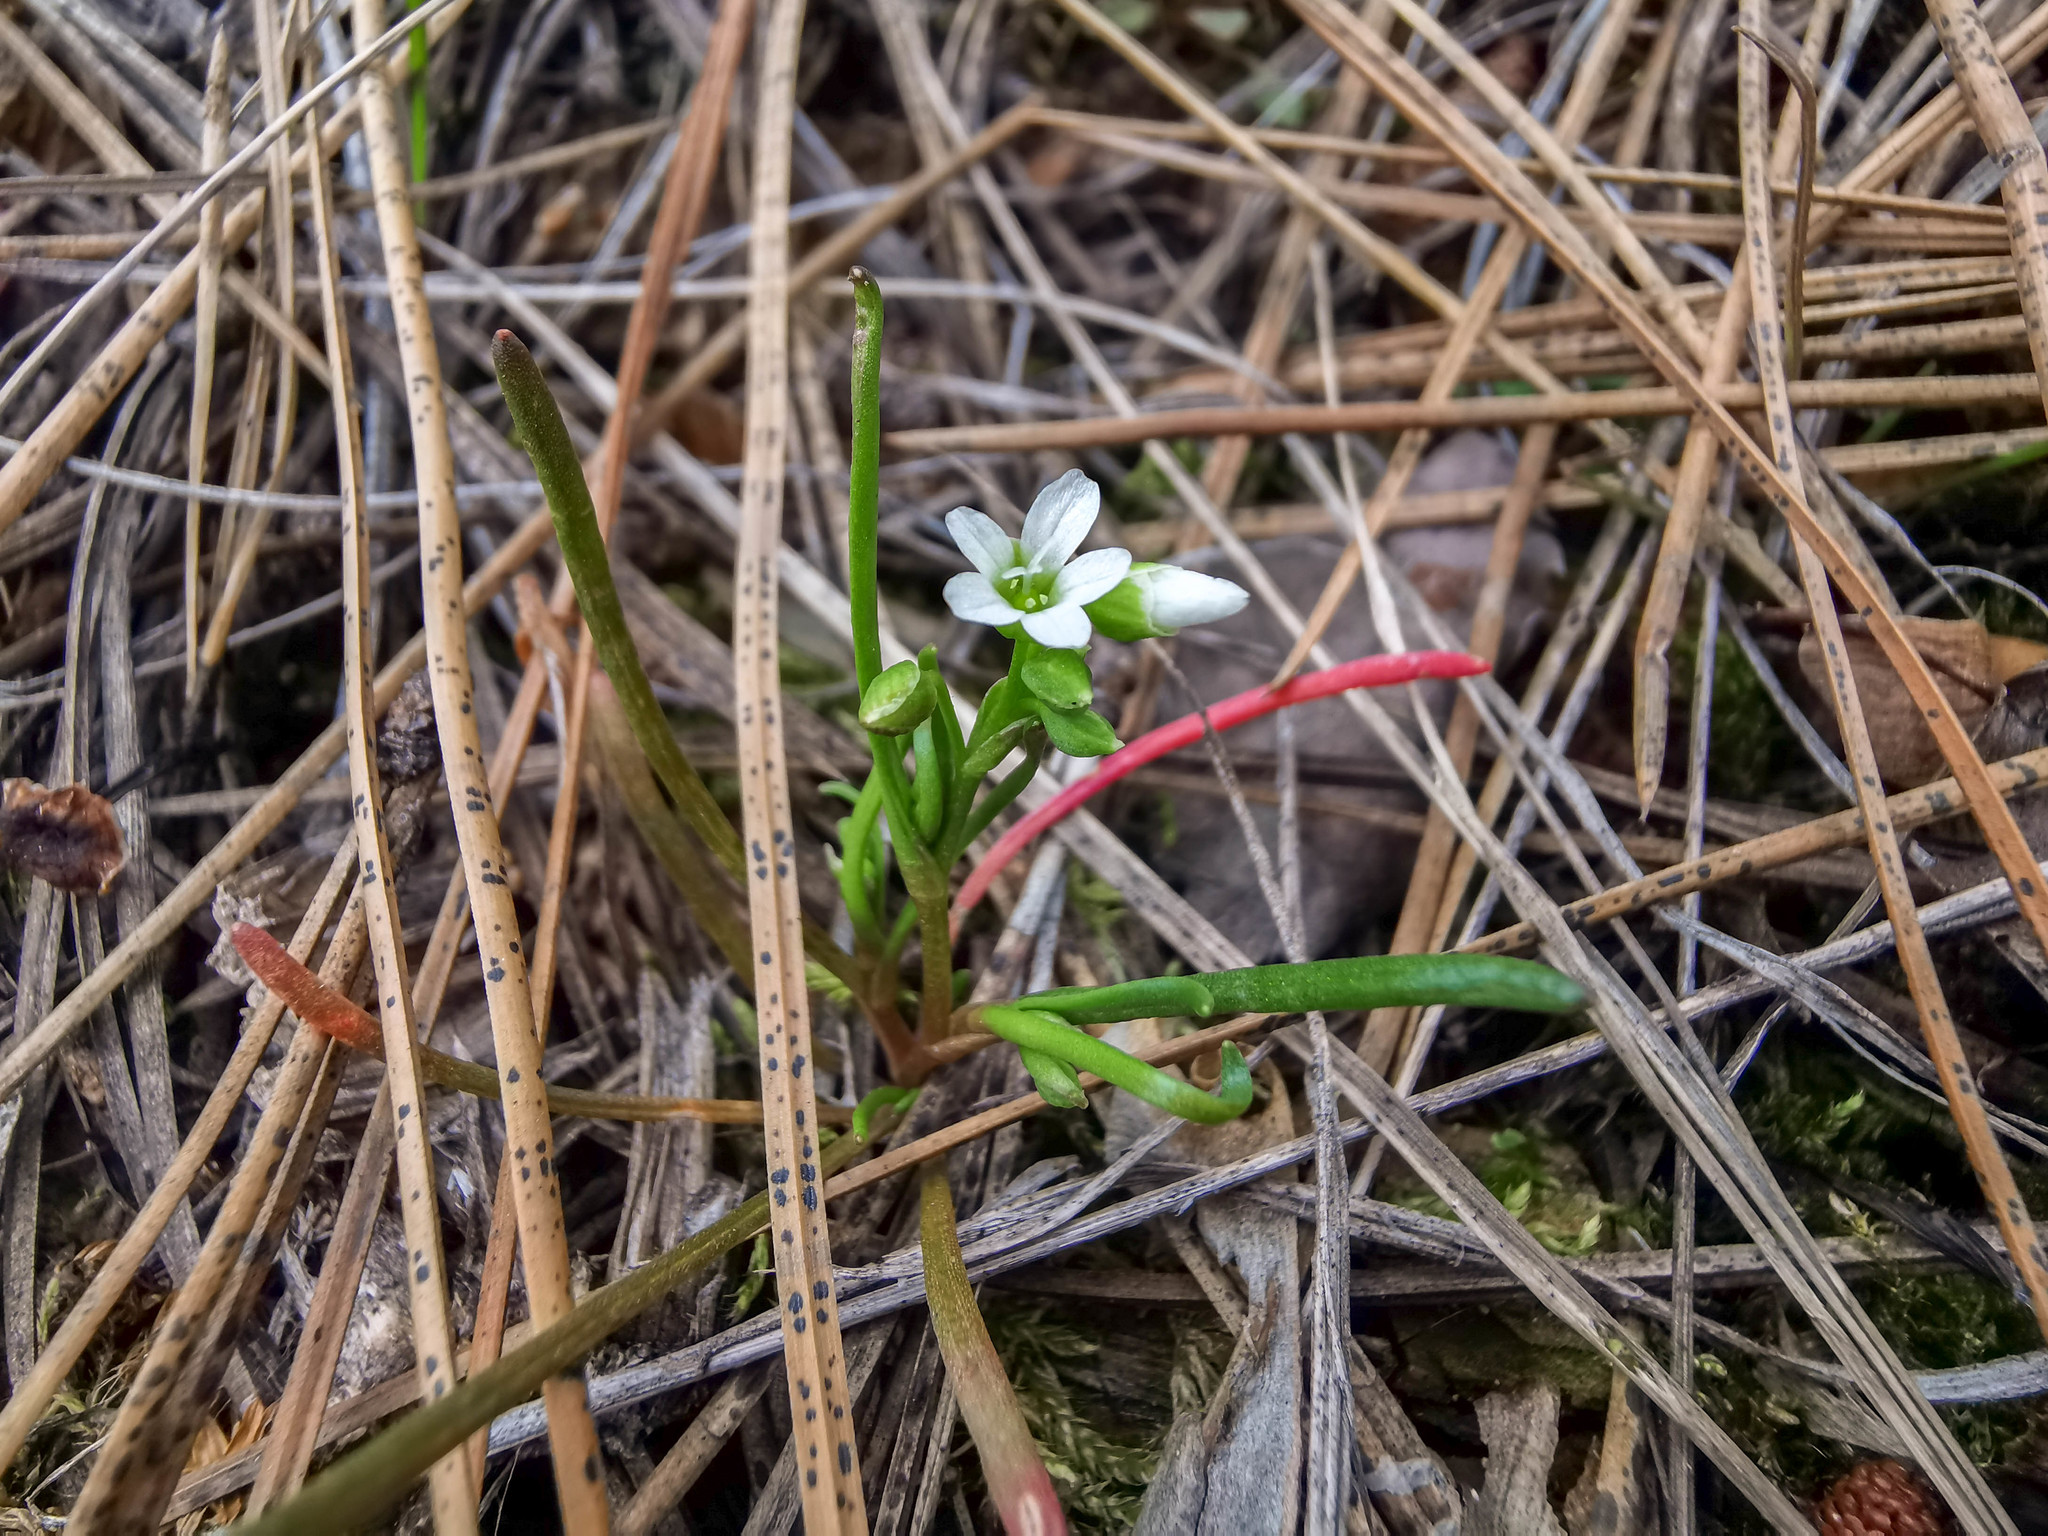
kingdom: Plantae
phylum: Tracheophyta
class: Magnoliopsida
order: Caryophyllales
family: Montiaceae
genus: Montia
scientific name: Montia linearis
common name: Narrow-leaf montia
